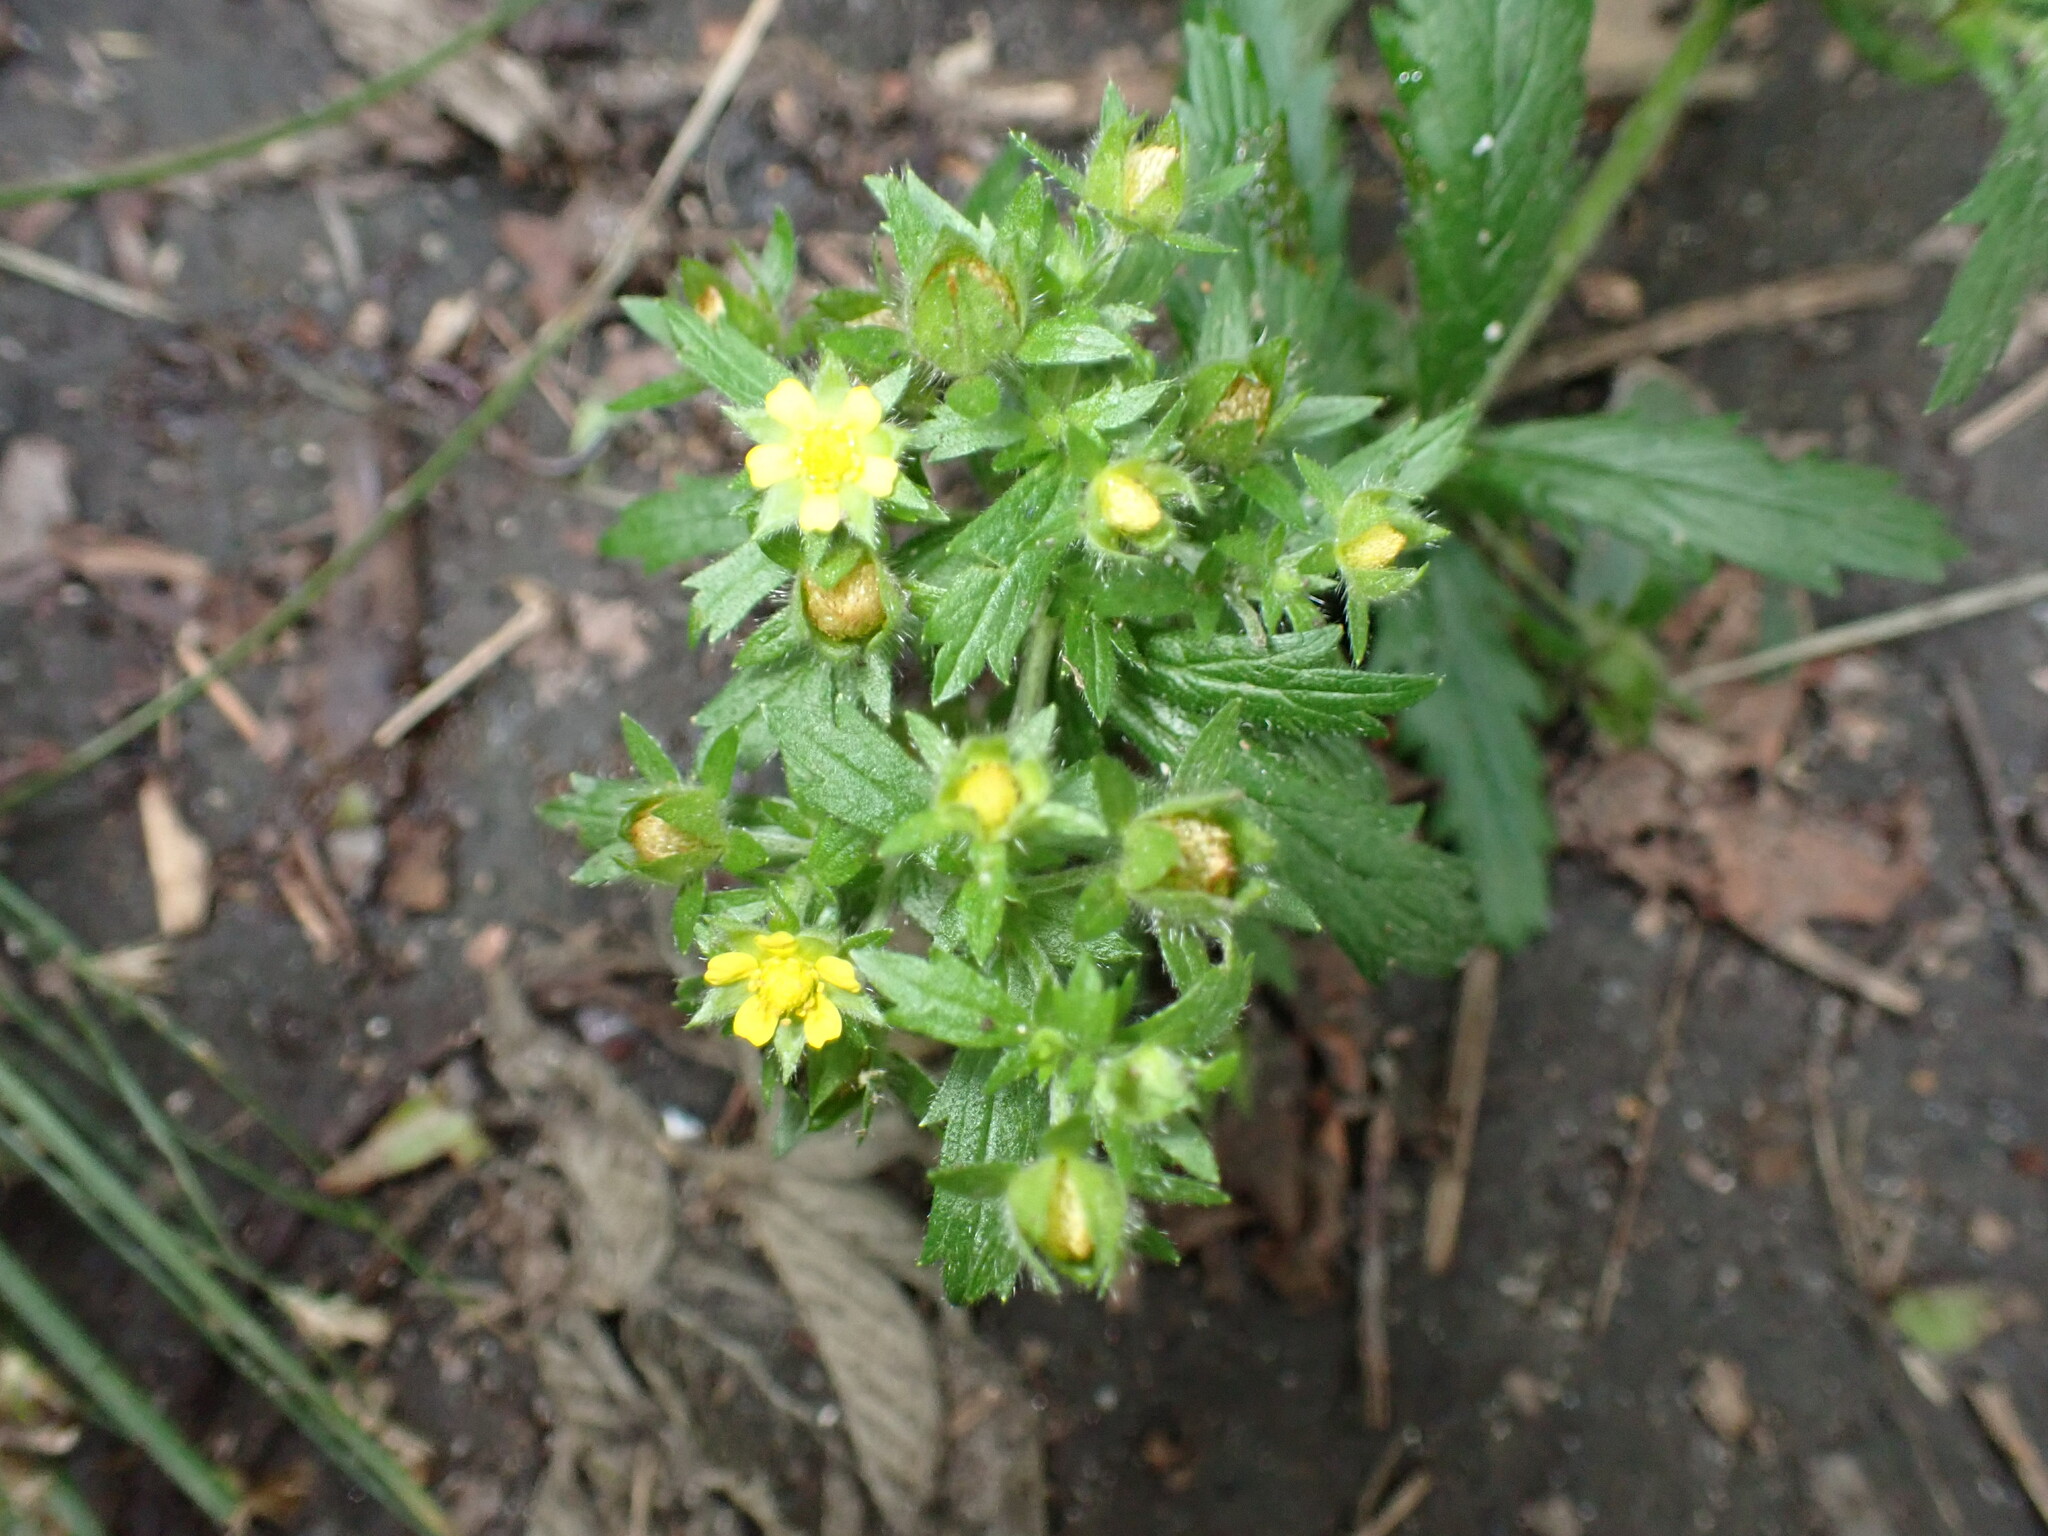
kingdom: Plantae
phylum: Tracheophyta
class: Magnoliopsida
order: Rosales
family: Rosaceae
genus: Potentilla
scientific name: Potentilla norvegica
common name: Ternate-leaved cinquefoil
